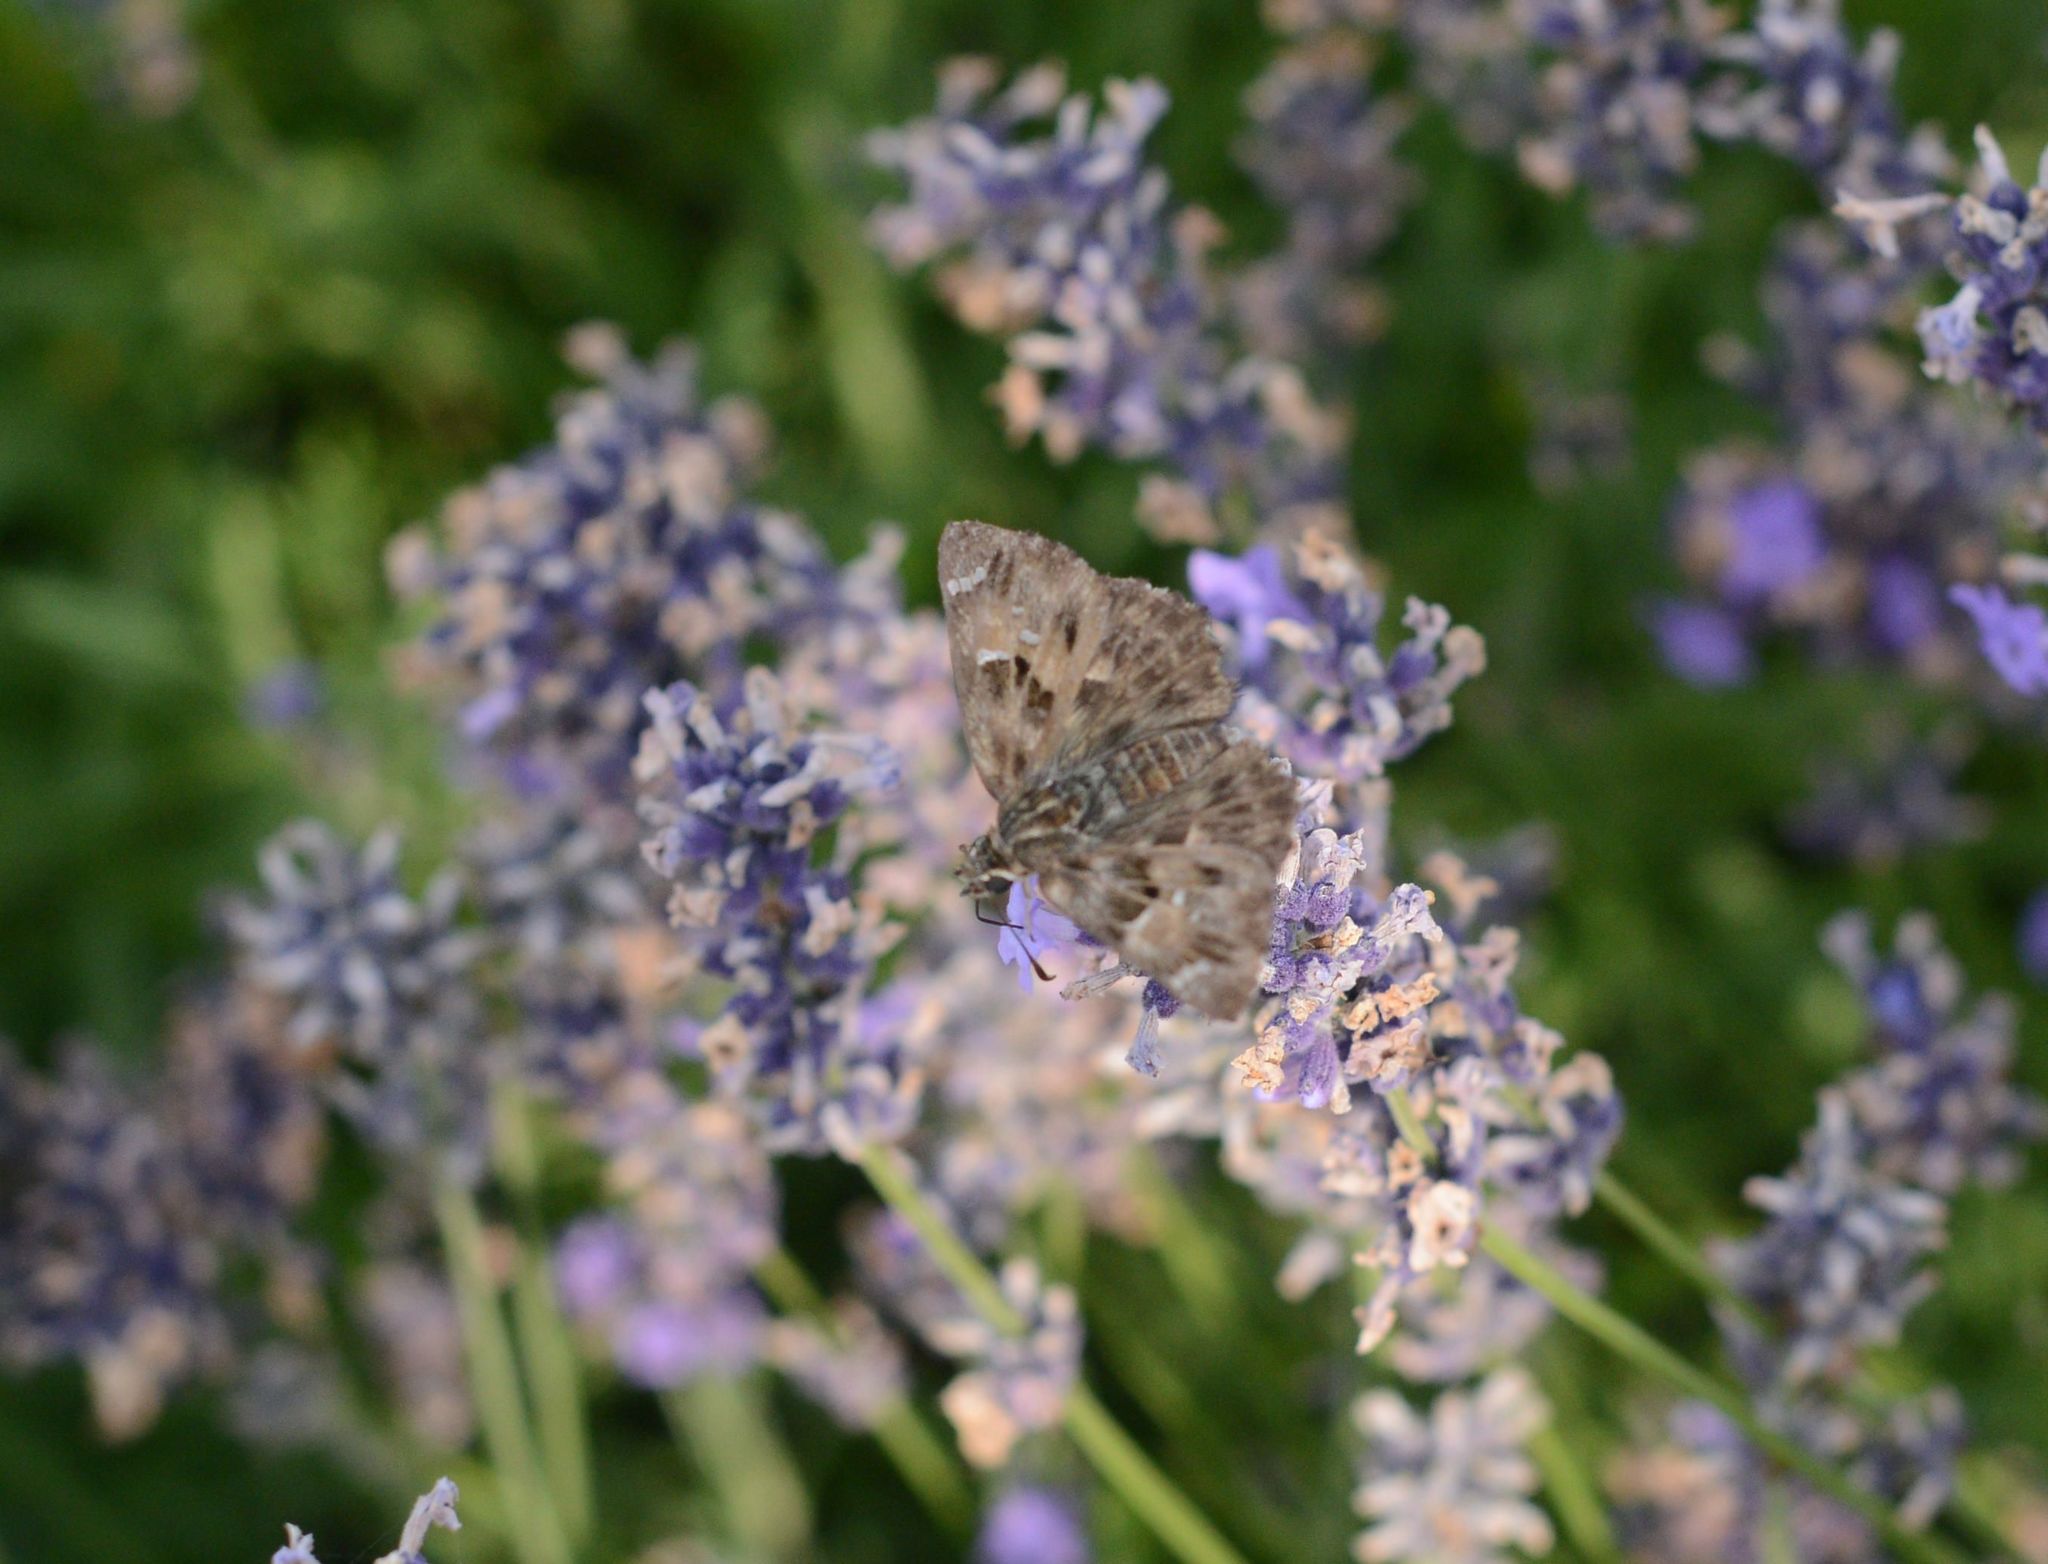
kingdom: Animalia
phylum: Arthropoda
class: Insecta
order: Lepidoptera
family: Hesperiidae
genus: Carcharodus
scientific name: Carcharodus alceae
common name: Mallow skipper
